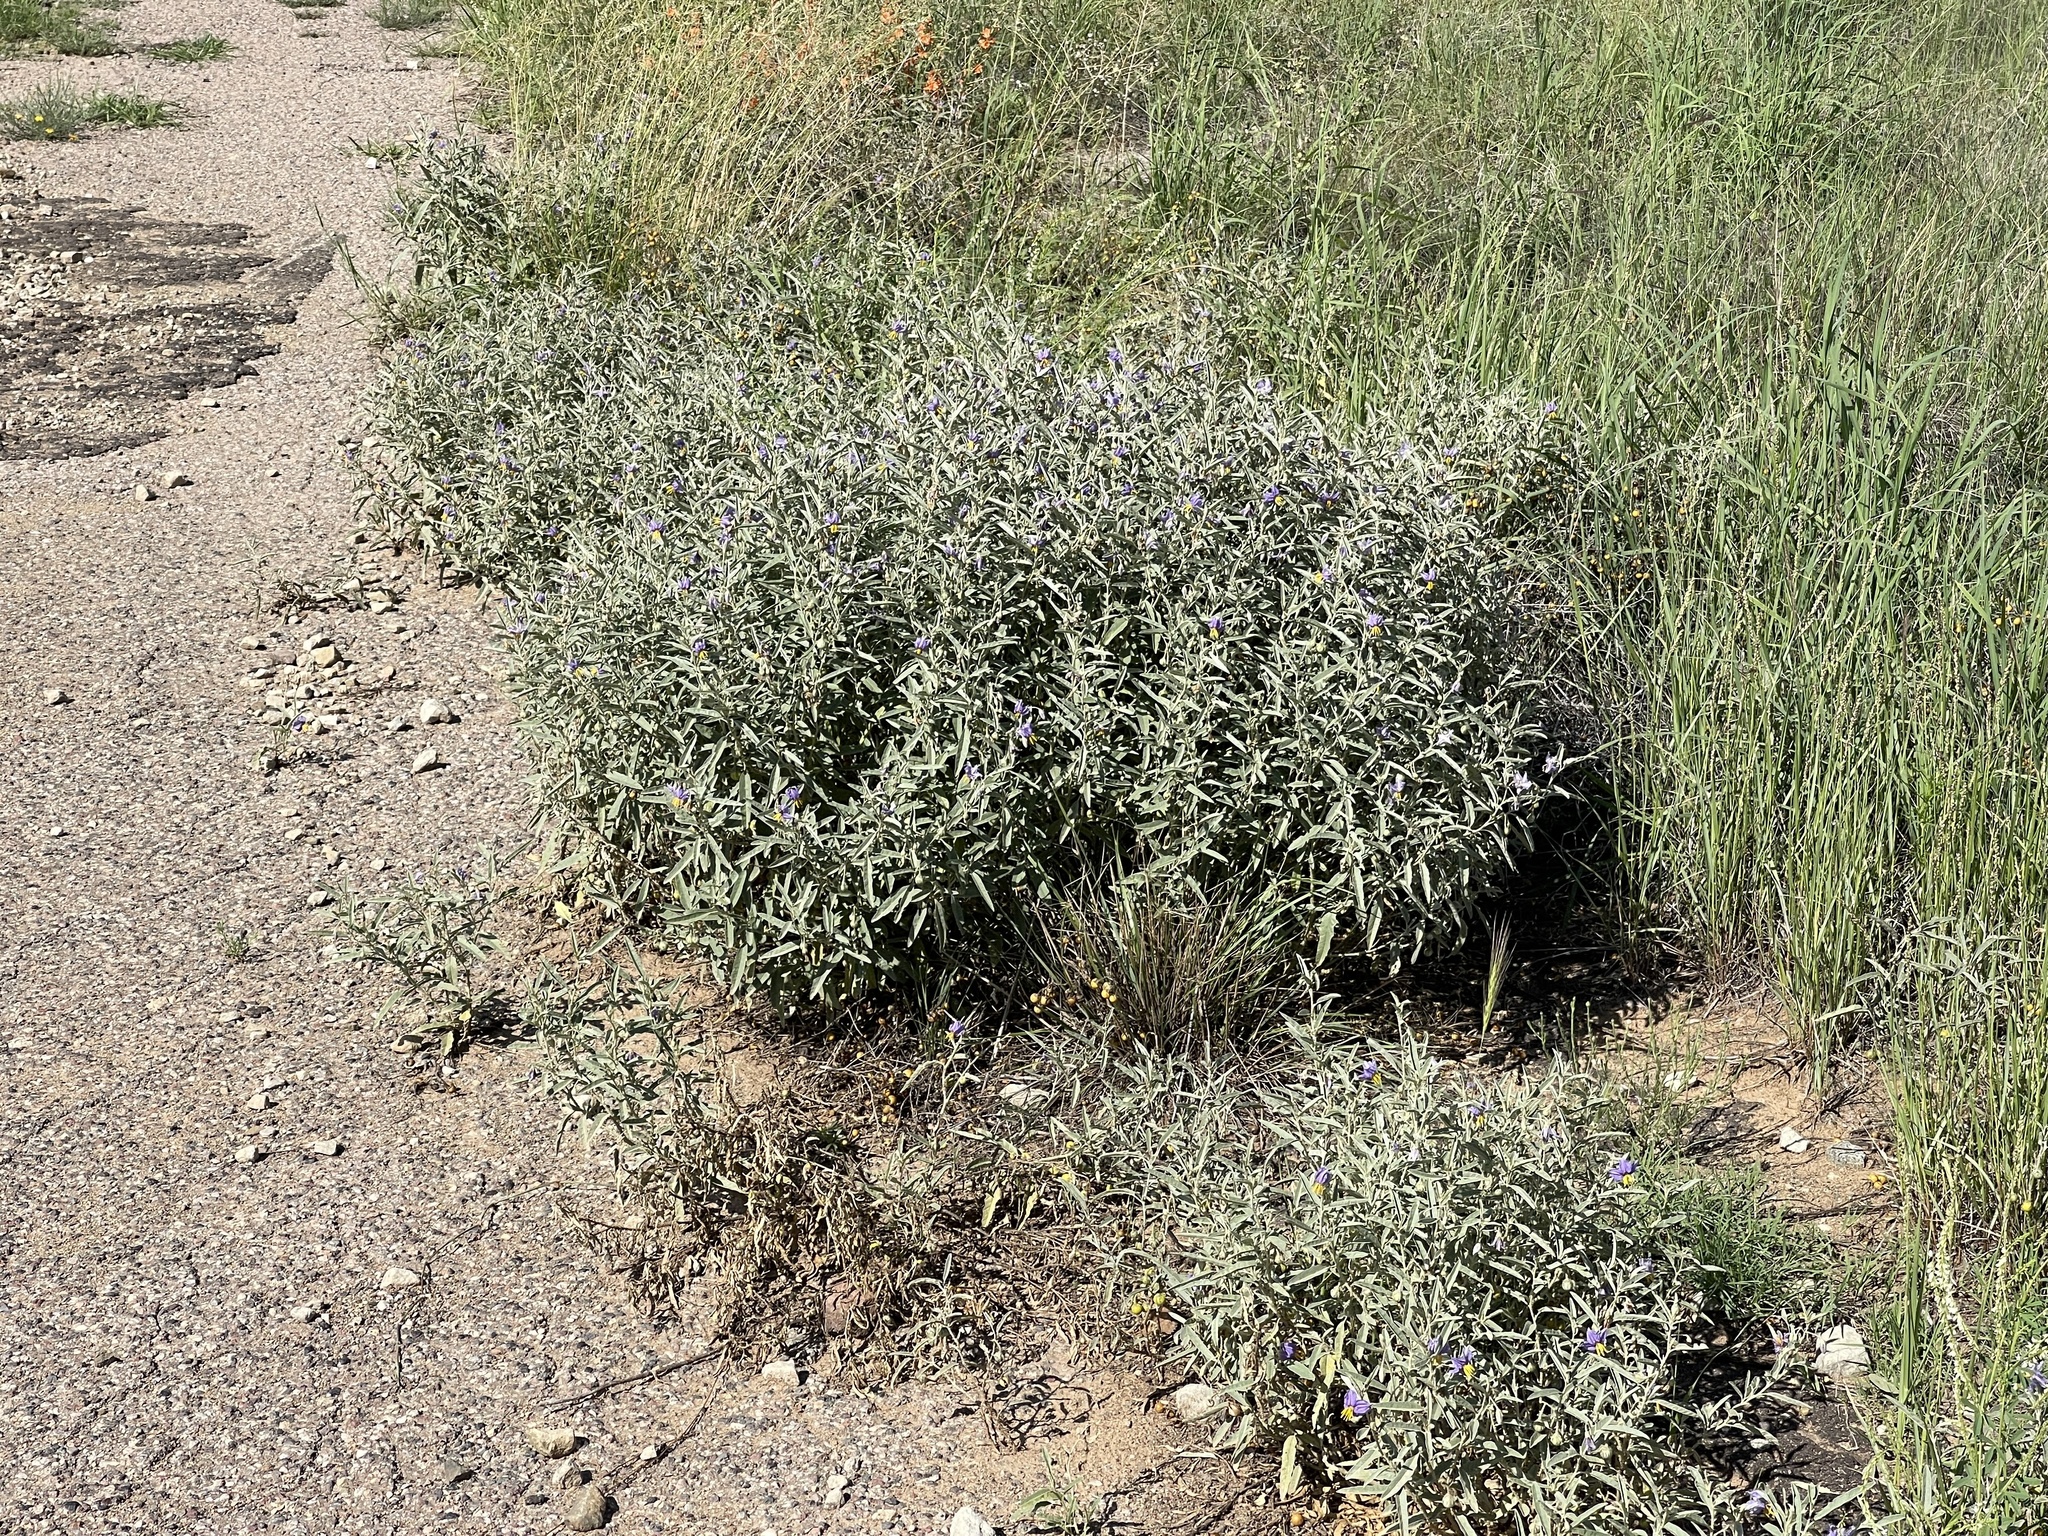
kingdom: Plantae
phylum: Tracheophyta
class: Magnoliopsida
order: Solanales
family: Solanaceae
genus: Solanum
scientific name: Solanum elaeagnifolium
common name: Silverleaf nightshade
